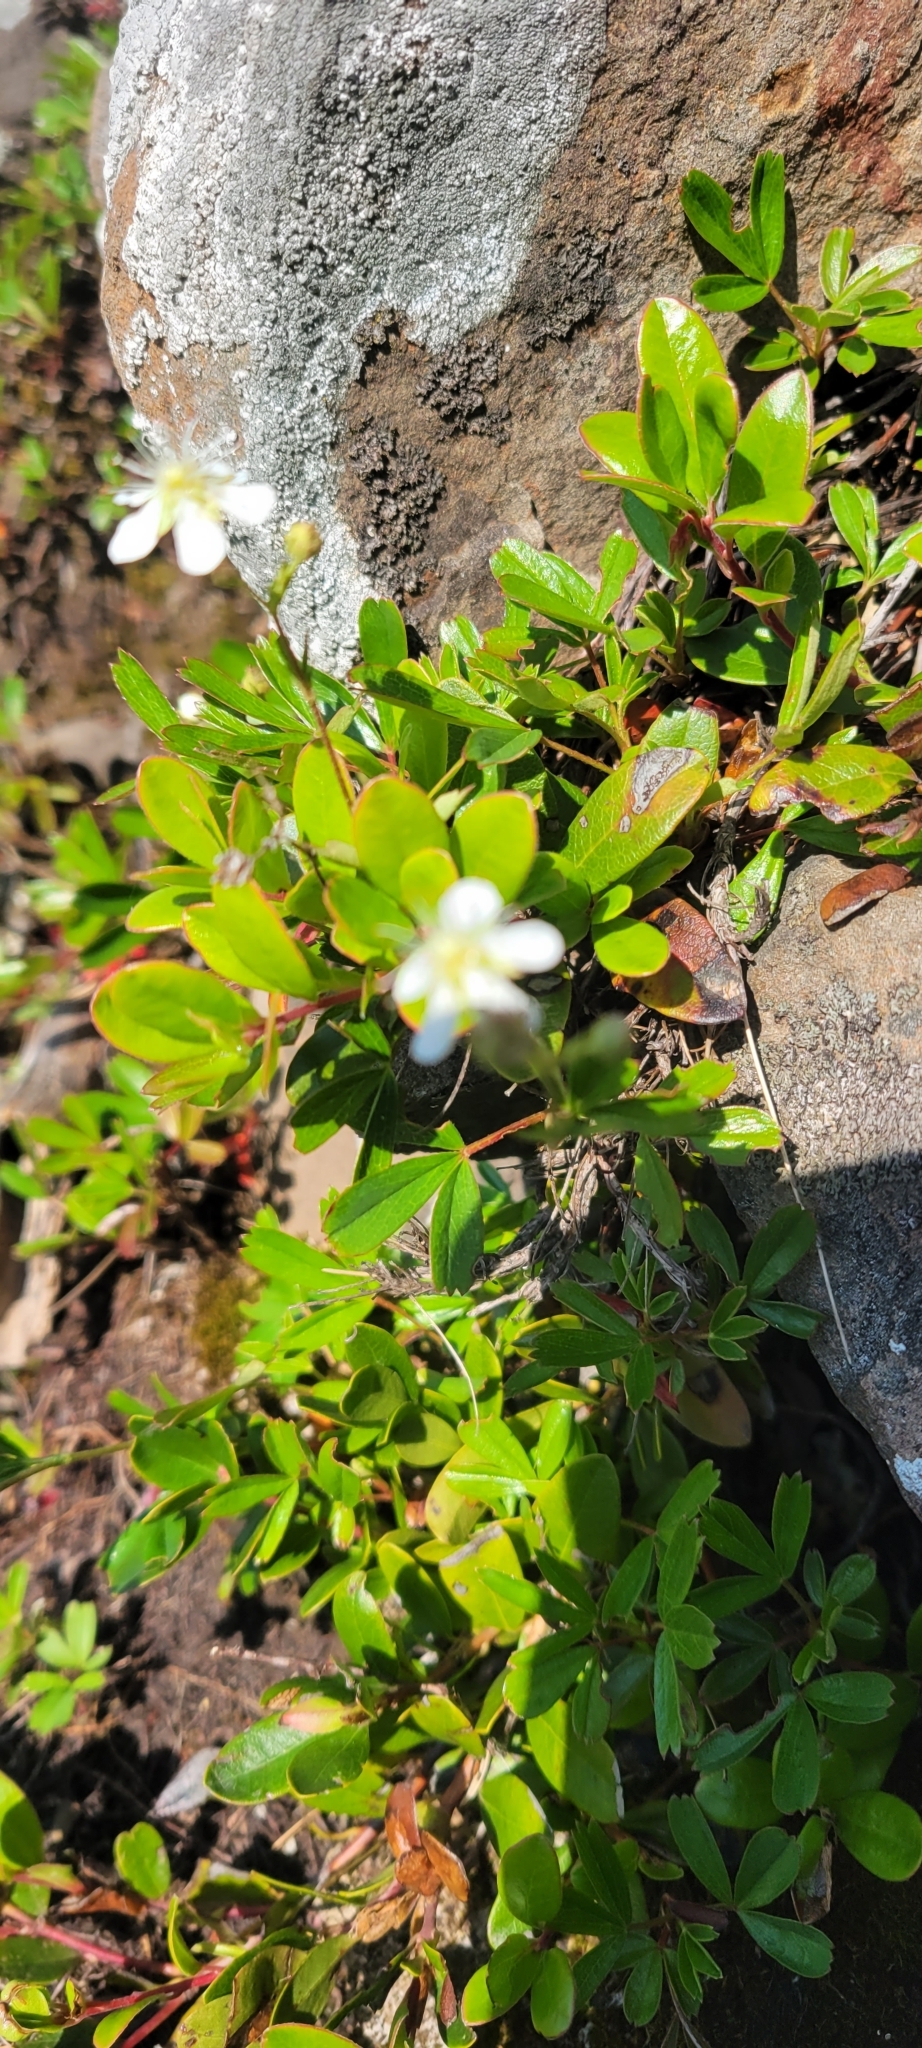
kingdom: Plantae
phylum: Tracheophyta
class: Magnoliopsida
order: Rosales
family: Rosaceae
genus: Sibbaldia
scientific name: Sibbaldia tridentata
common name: Three-toothed cinquefoil
